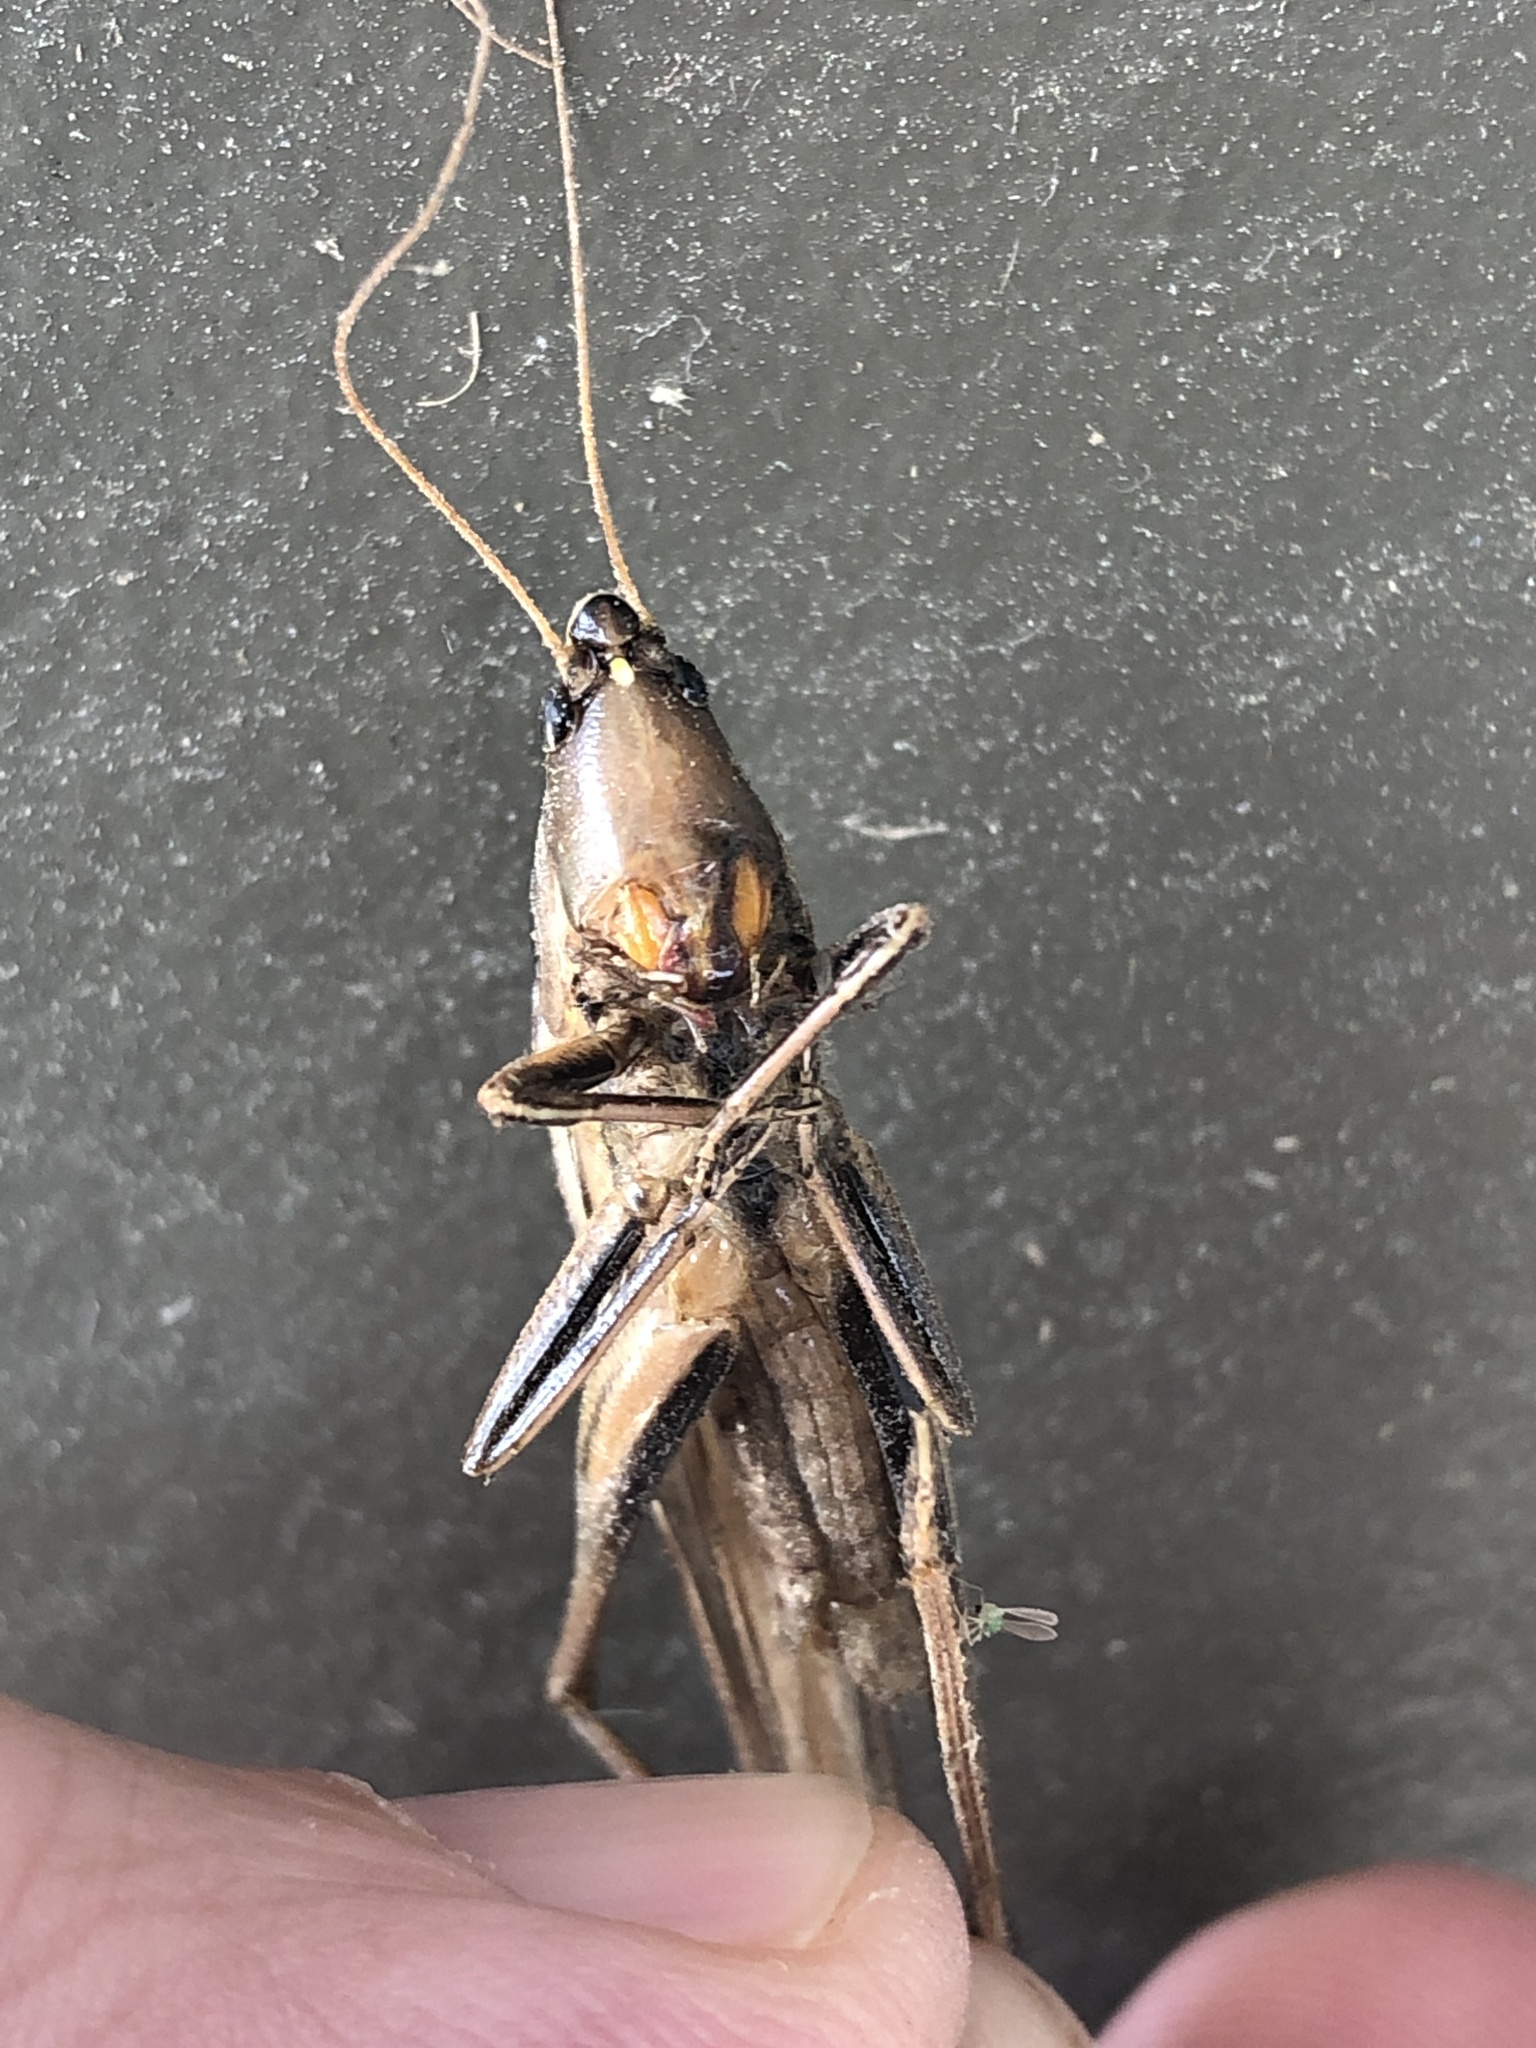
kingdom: Animalia
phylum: Arthropoda
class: Insecta
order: Orthoptera
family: Tettigoniidae
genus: Neoconocephalus
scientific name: Neoconocephalus triops
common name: Broad-tipped conehead
